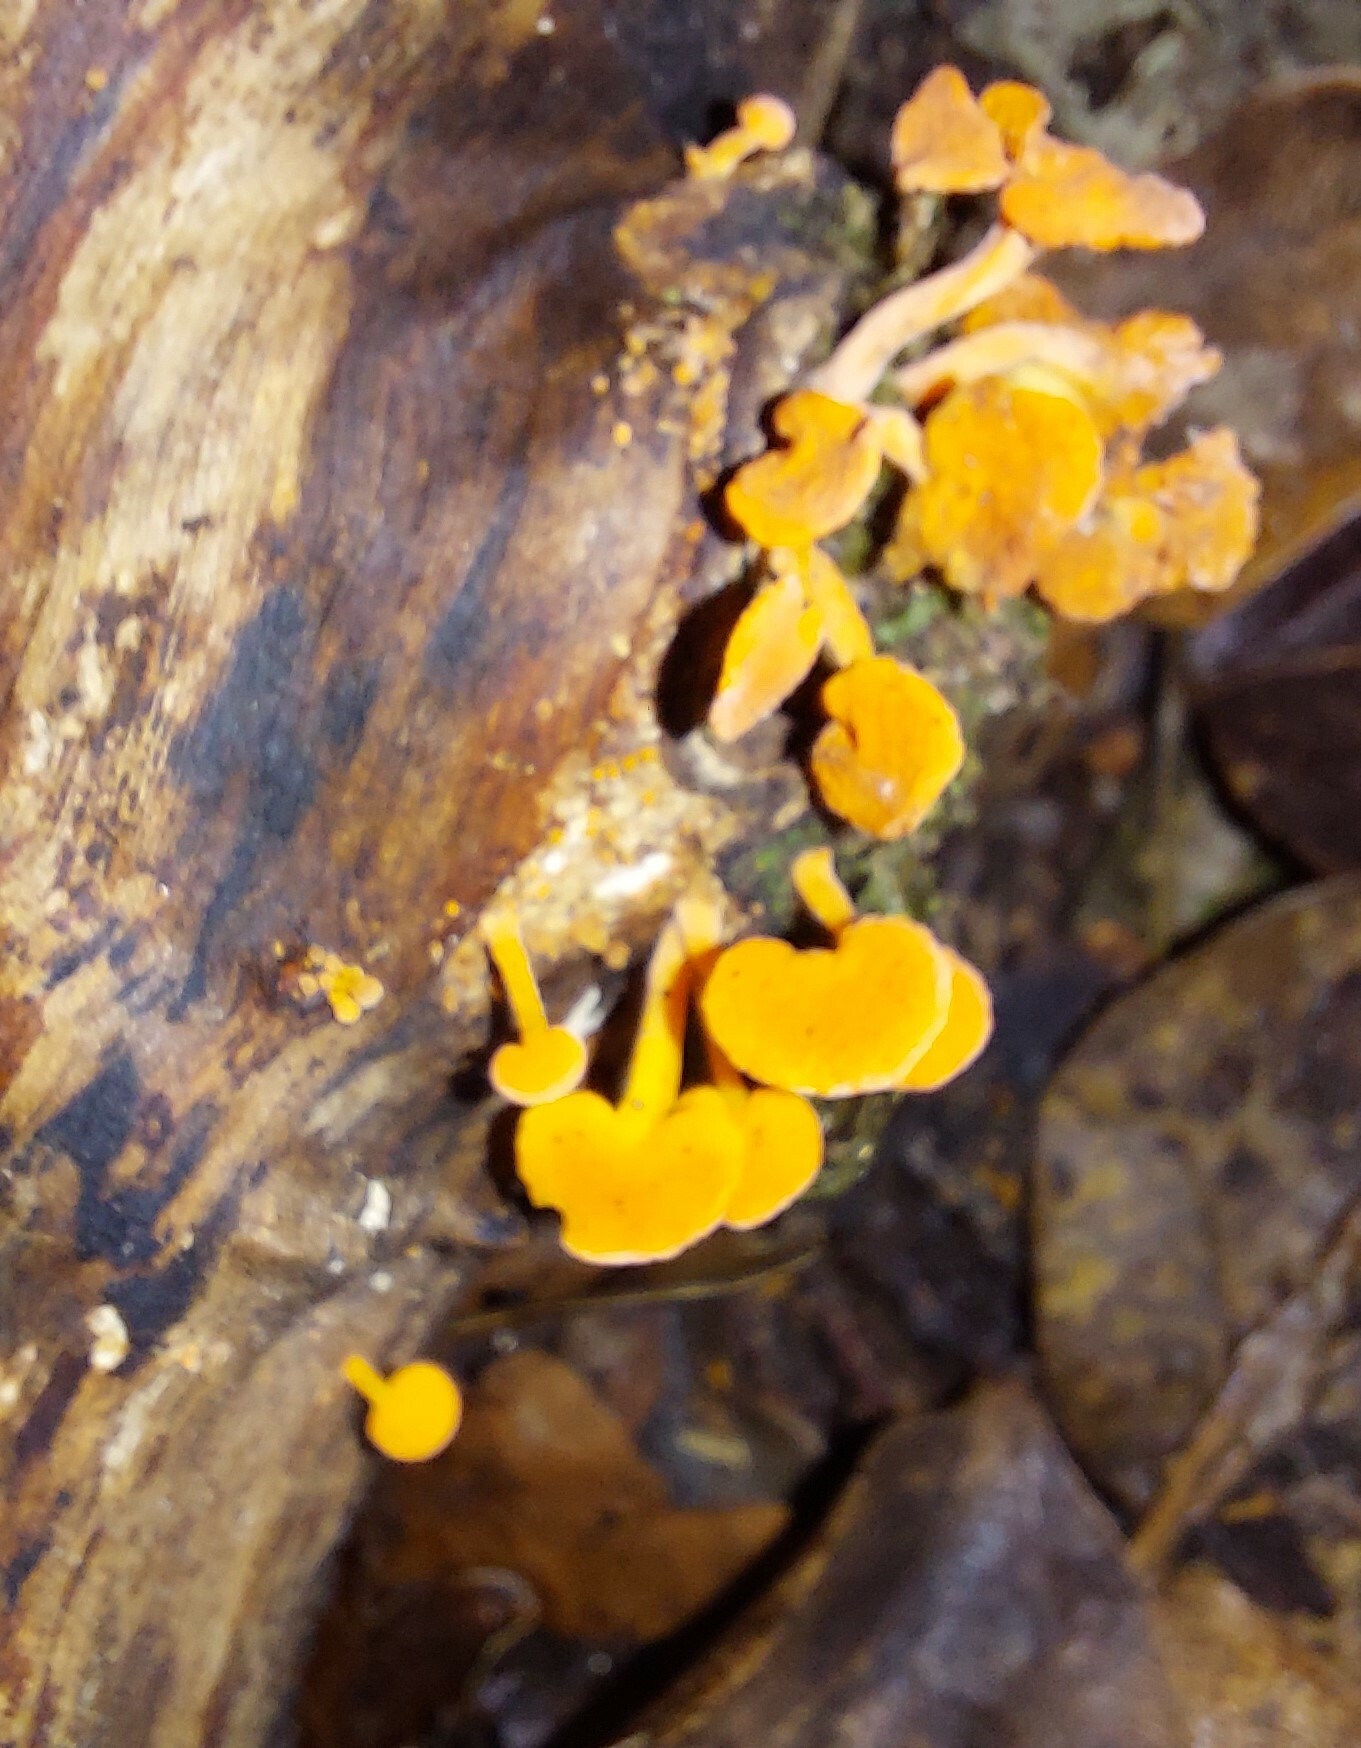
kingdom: Fungi
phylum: Basidiomycota
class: Agaricomycetes
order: Agaricales
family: Mycenaceae
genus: Favolaschia
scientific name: Favolaschia claudopus
